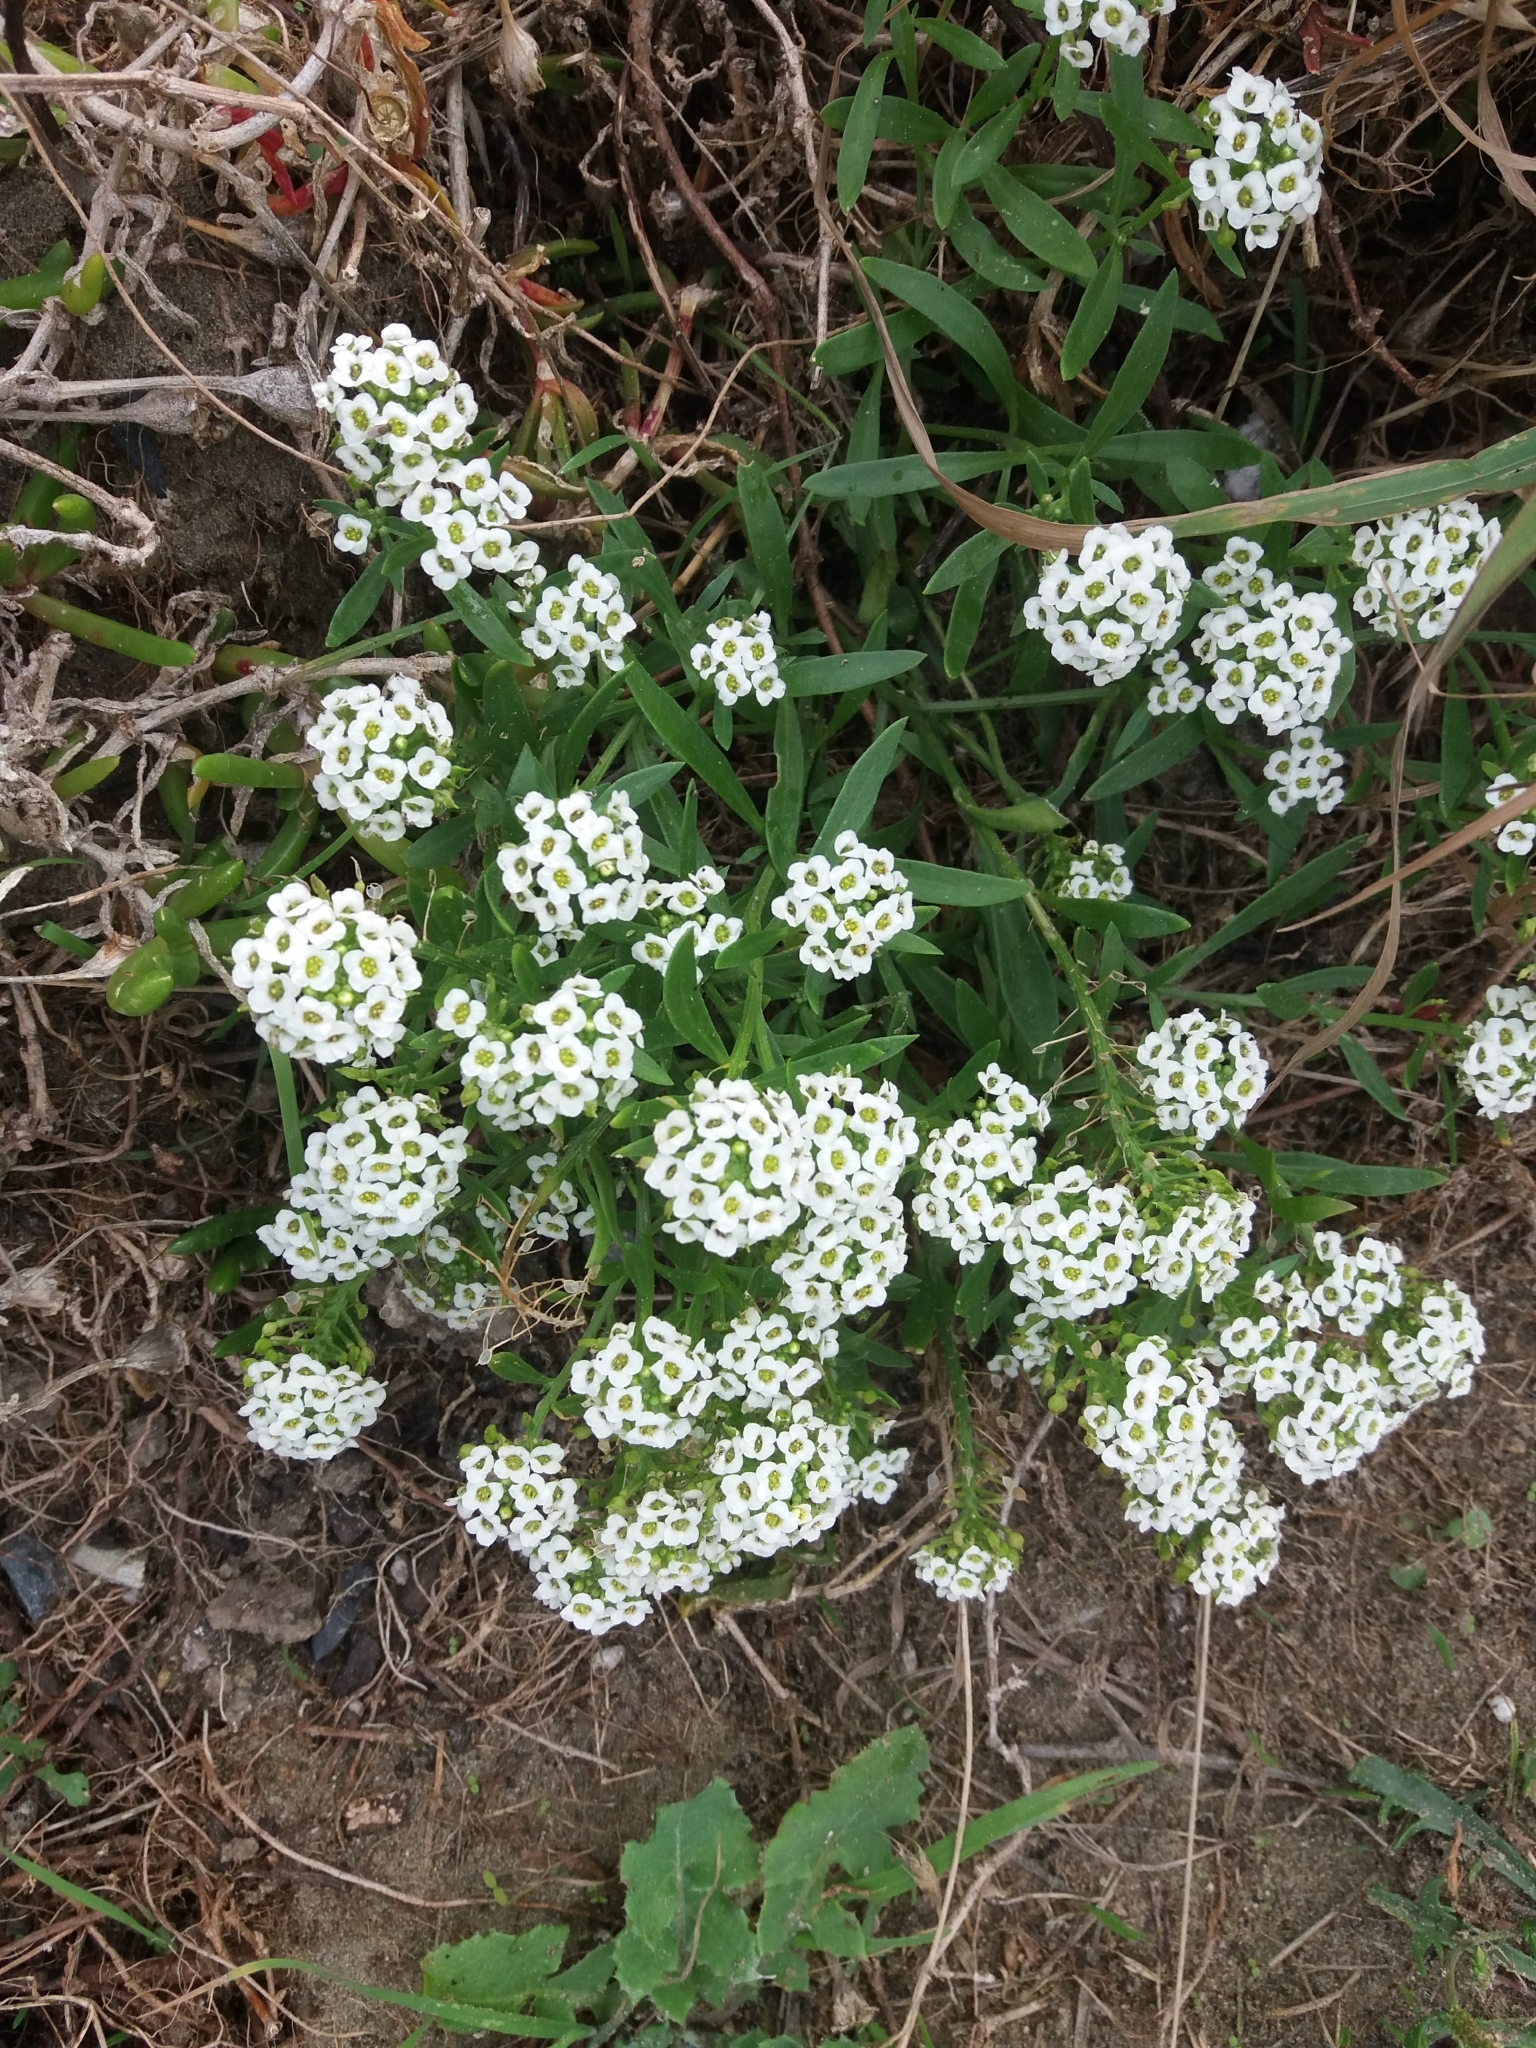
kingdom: Plantae
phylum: Tracheophyta
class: Magnoliopsida
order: Brassicales
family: Brassicaceae
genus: Lobularia
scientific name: Lobularia maritima
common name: Sweet alison
